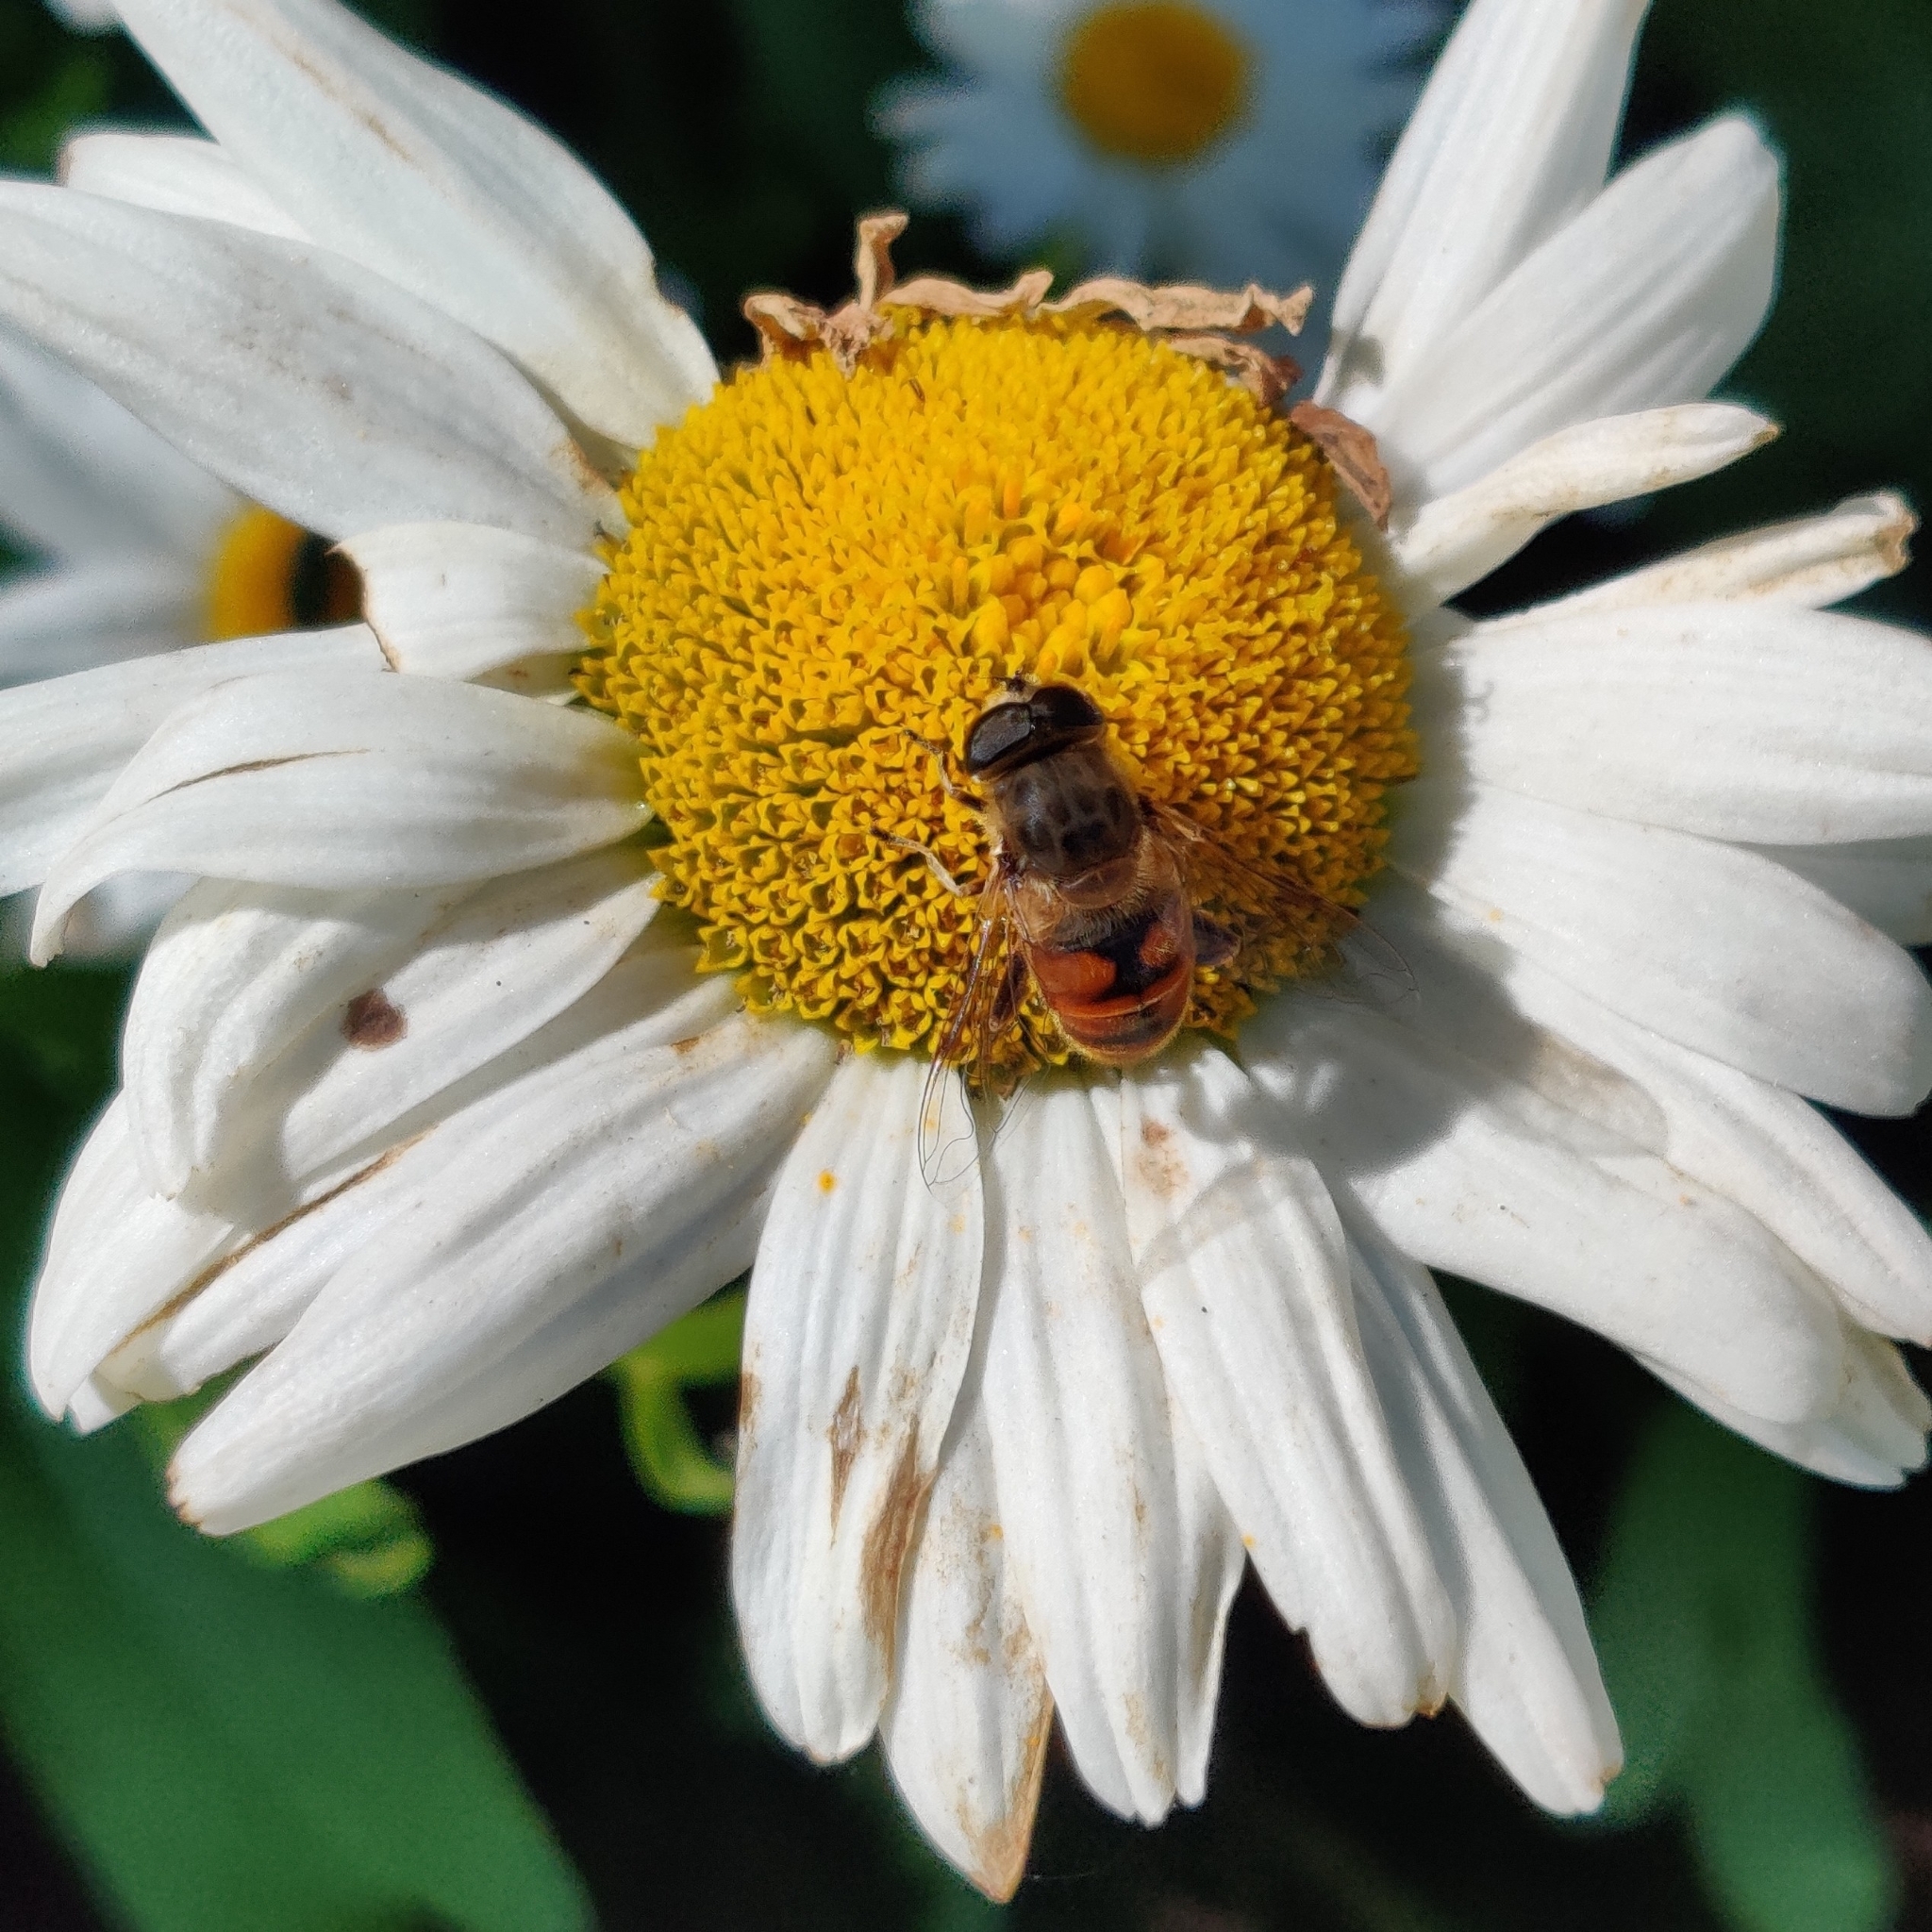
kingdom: Animalia
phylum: Arthropoda
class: Insecta
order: Diptera
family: Syrphidae
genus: Eristalis
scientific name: Eristalis tenax
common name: Drone fly
